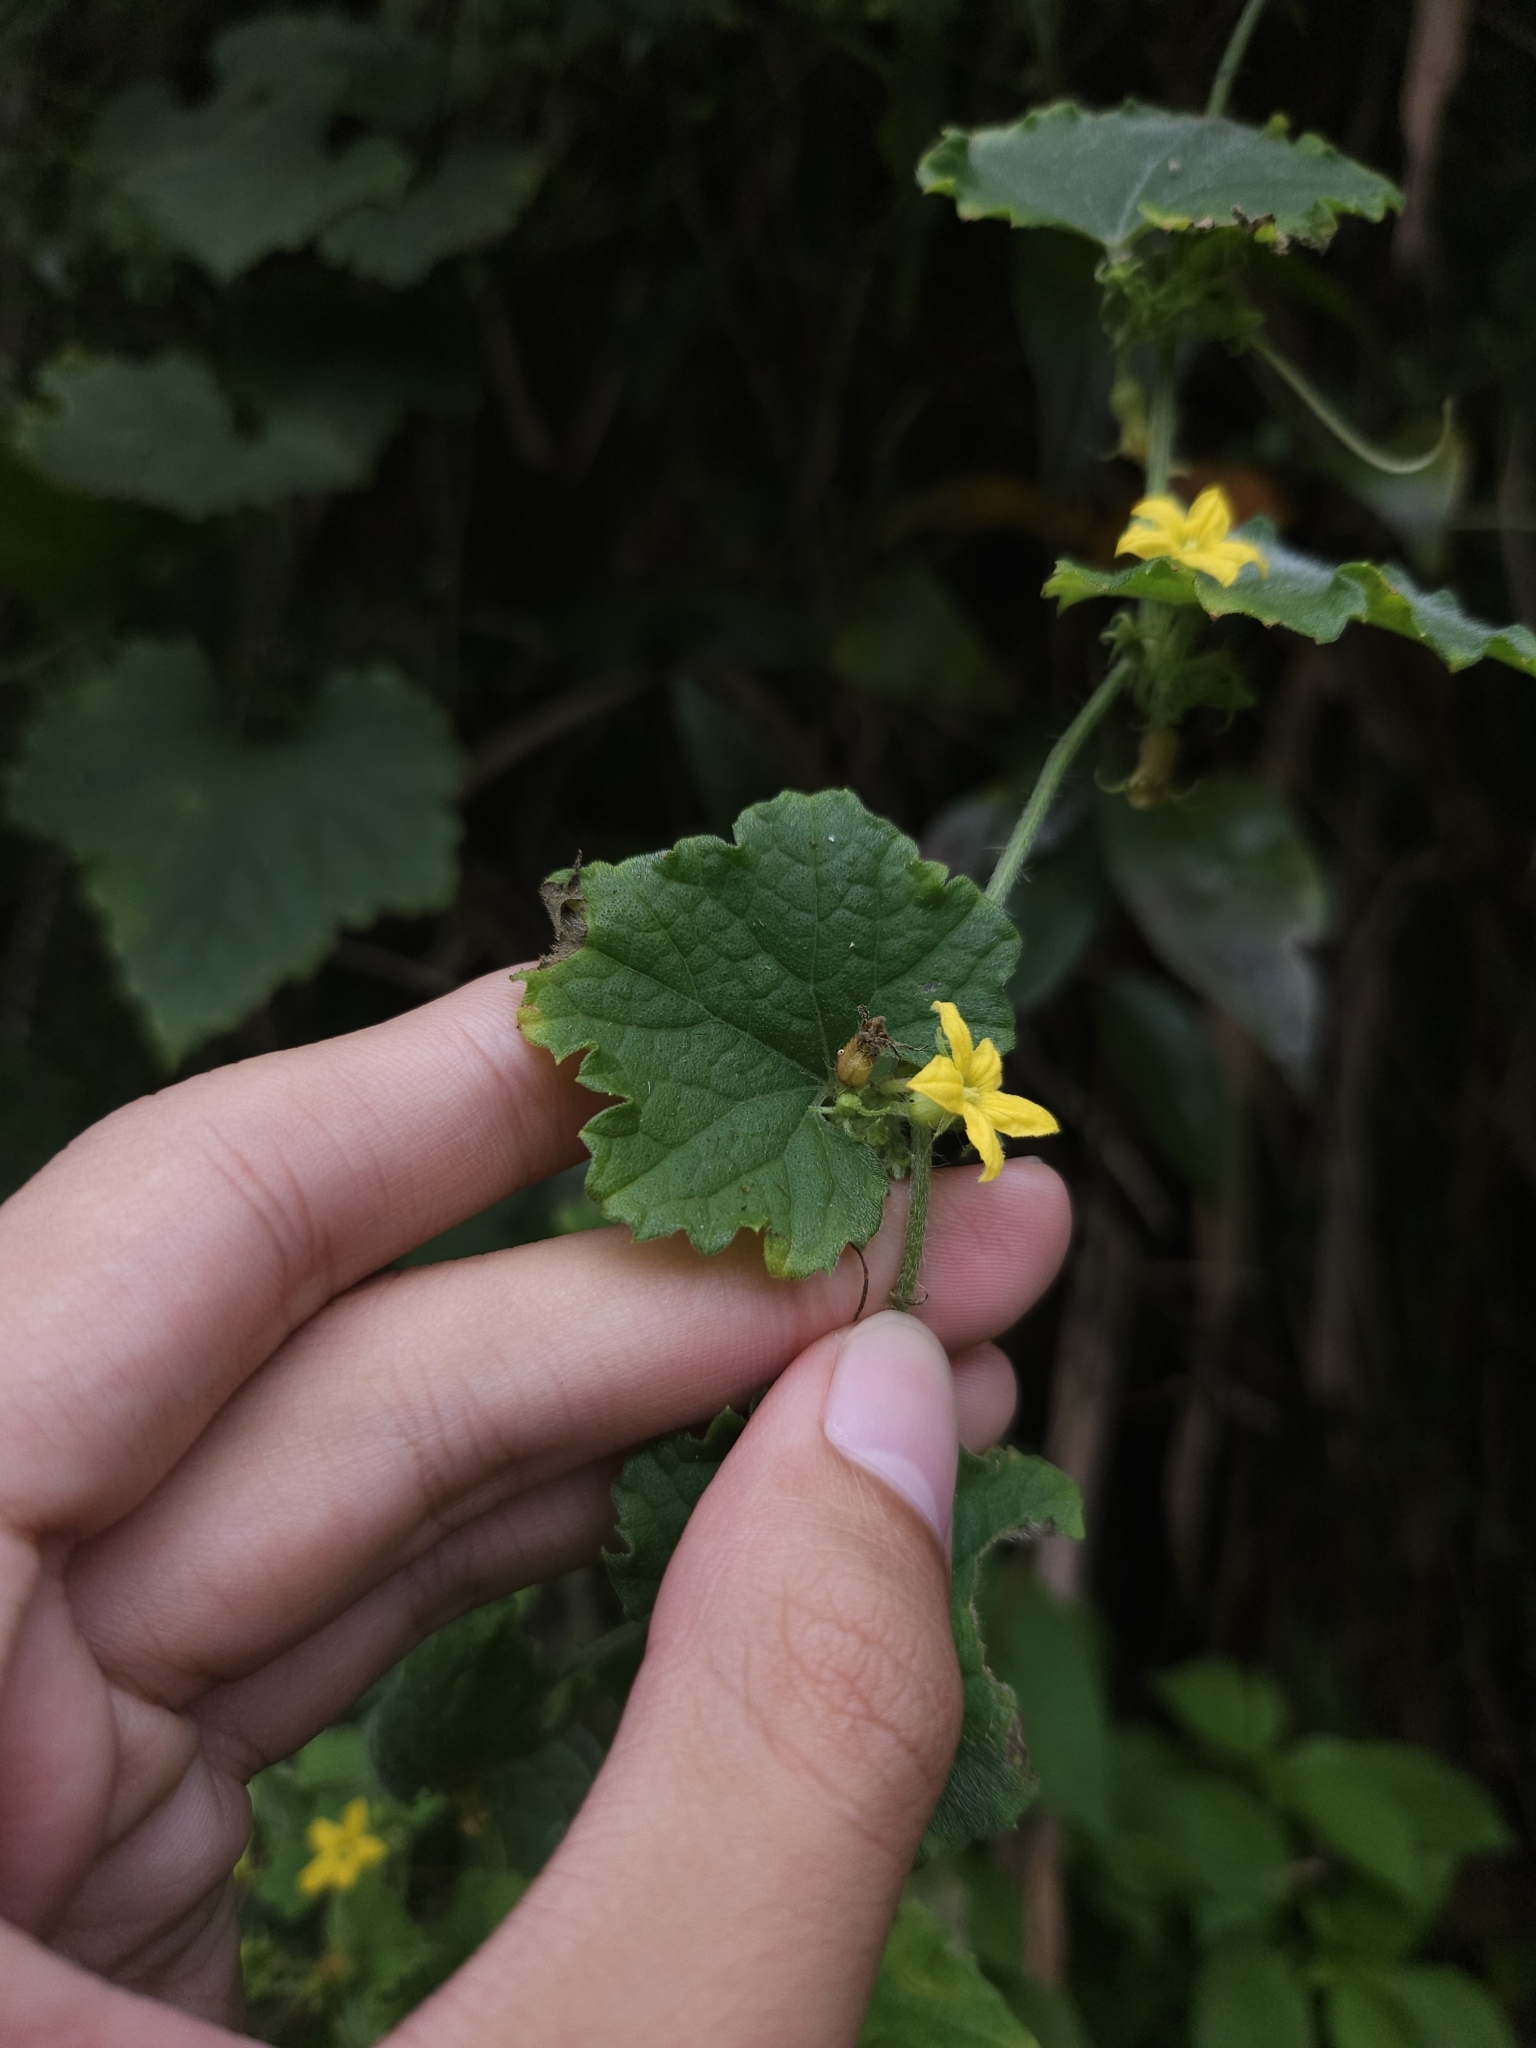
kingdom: Plantae
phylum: Tracheophyta
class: Magnoliopsida
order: Cucurbitales
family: Cucurbitaceae
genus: Cucumis
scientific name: Cucumis maderaspatanus
